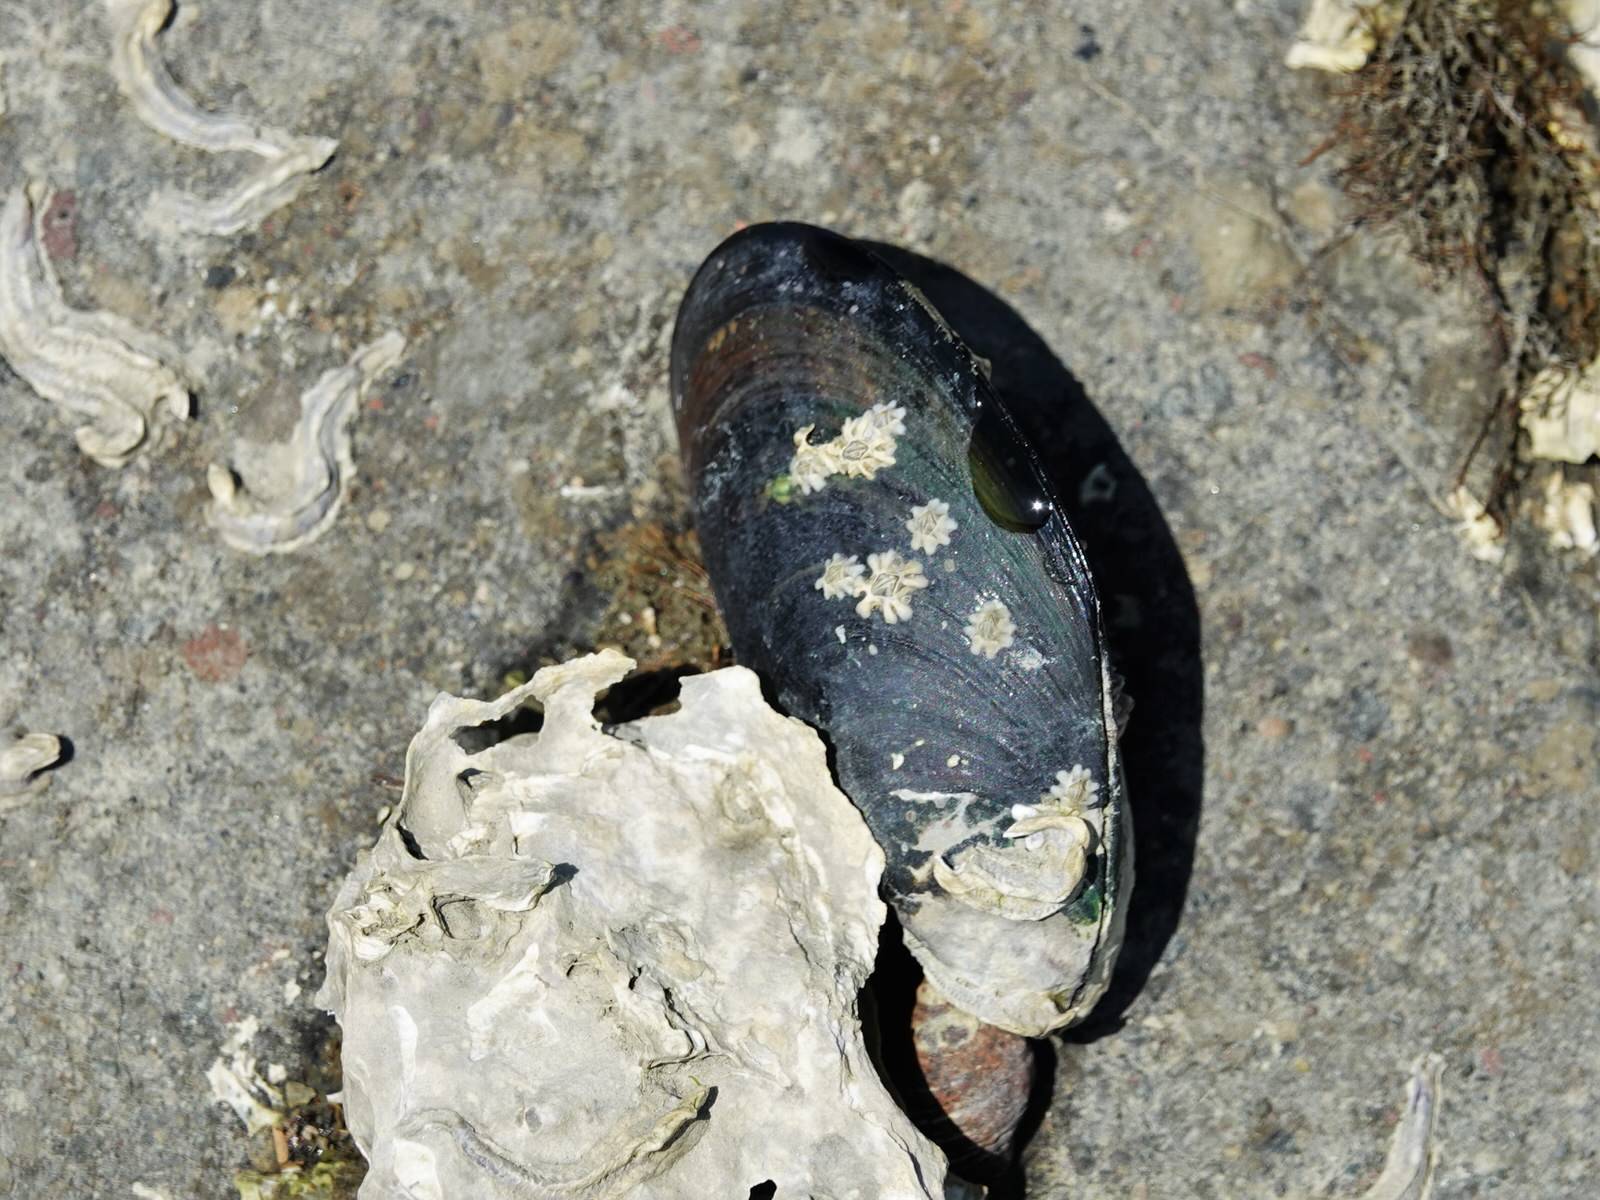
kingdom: Animalia
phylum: Mollusca
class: Bivalvia
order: Mytilida
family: Mytilidae
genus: Perna
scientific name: Perna canaliculus
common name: New zealand greenshelltm
